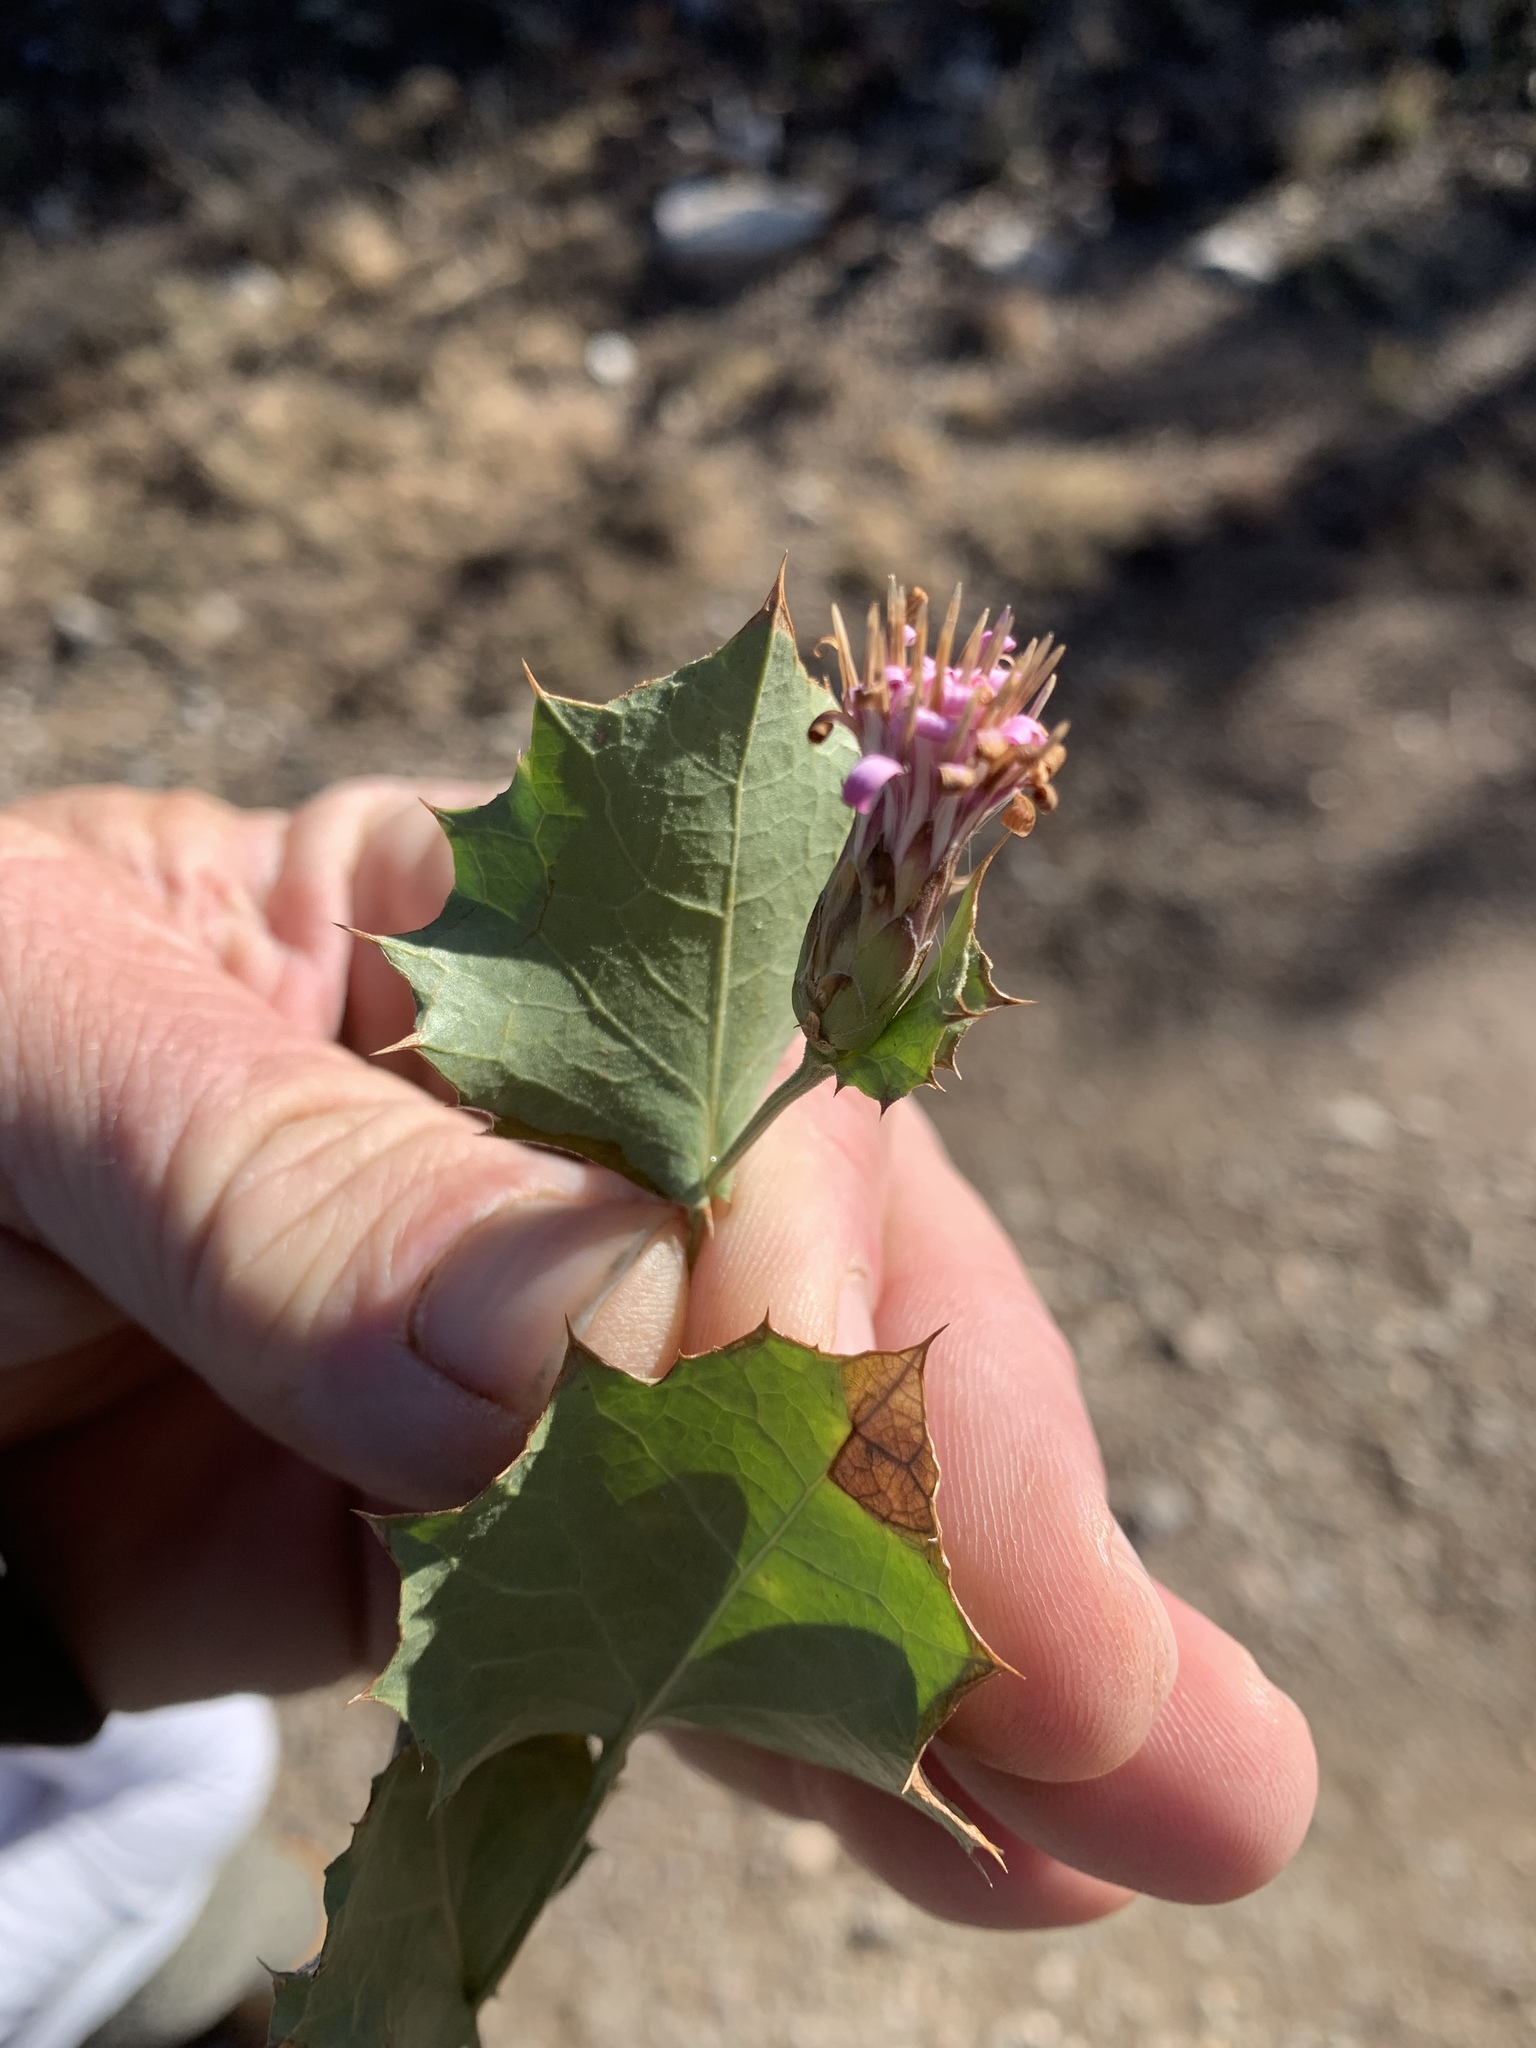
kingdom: Plantae
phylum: Tracheophyta
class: Magnoliopsida
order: Asterales
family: Asteraceae
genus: Acourtia
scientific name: Acourtia nana
